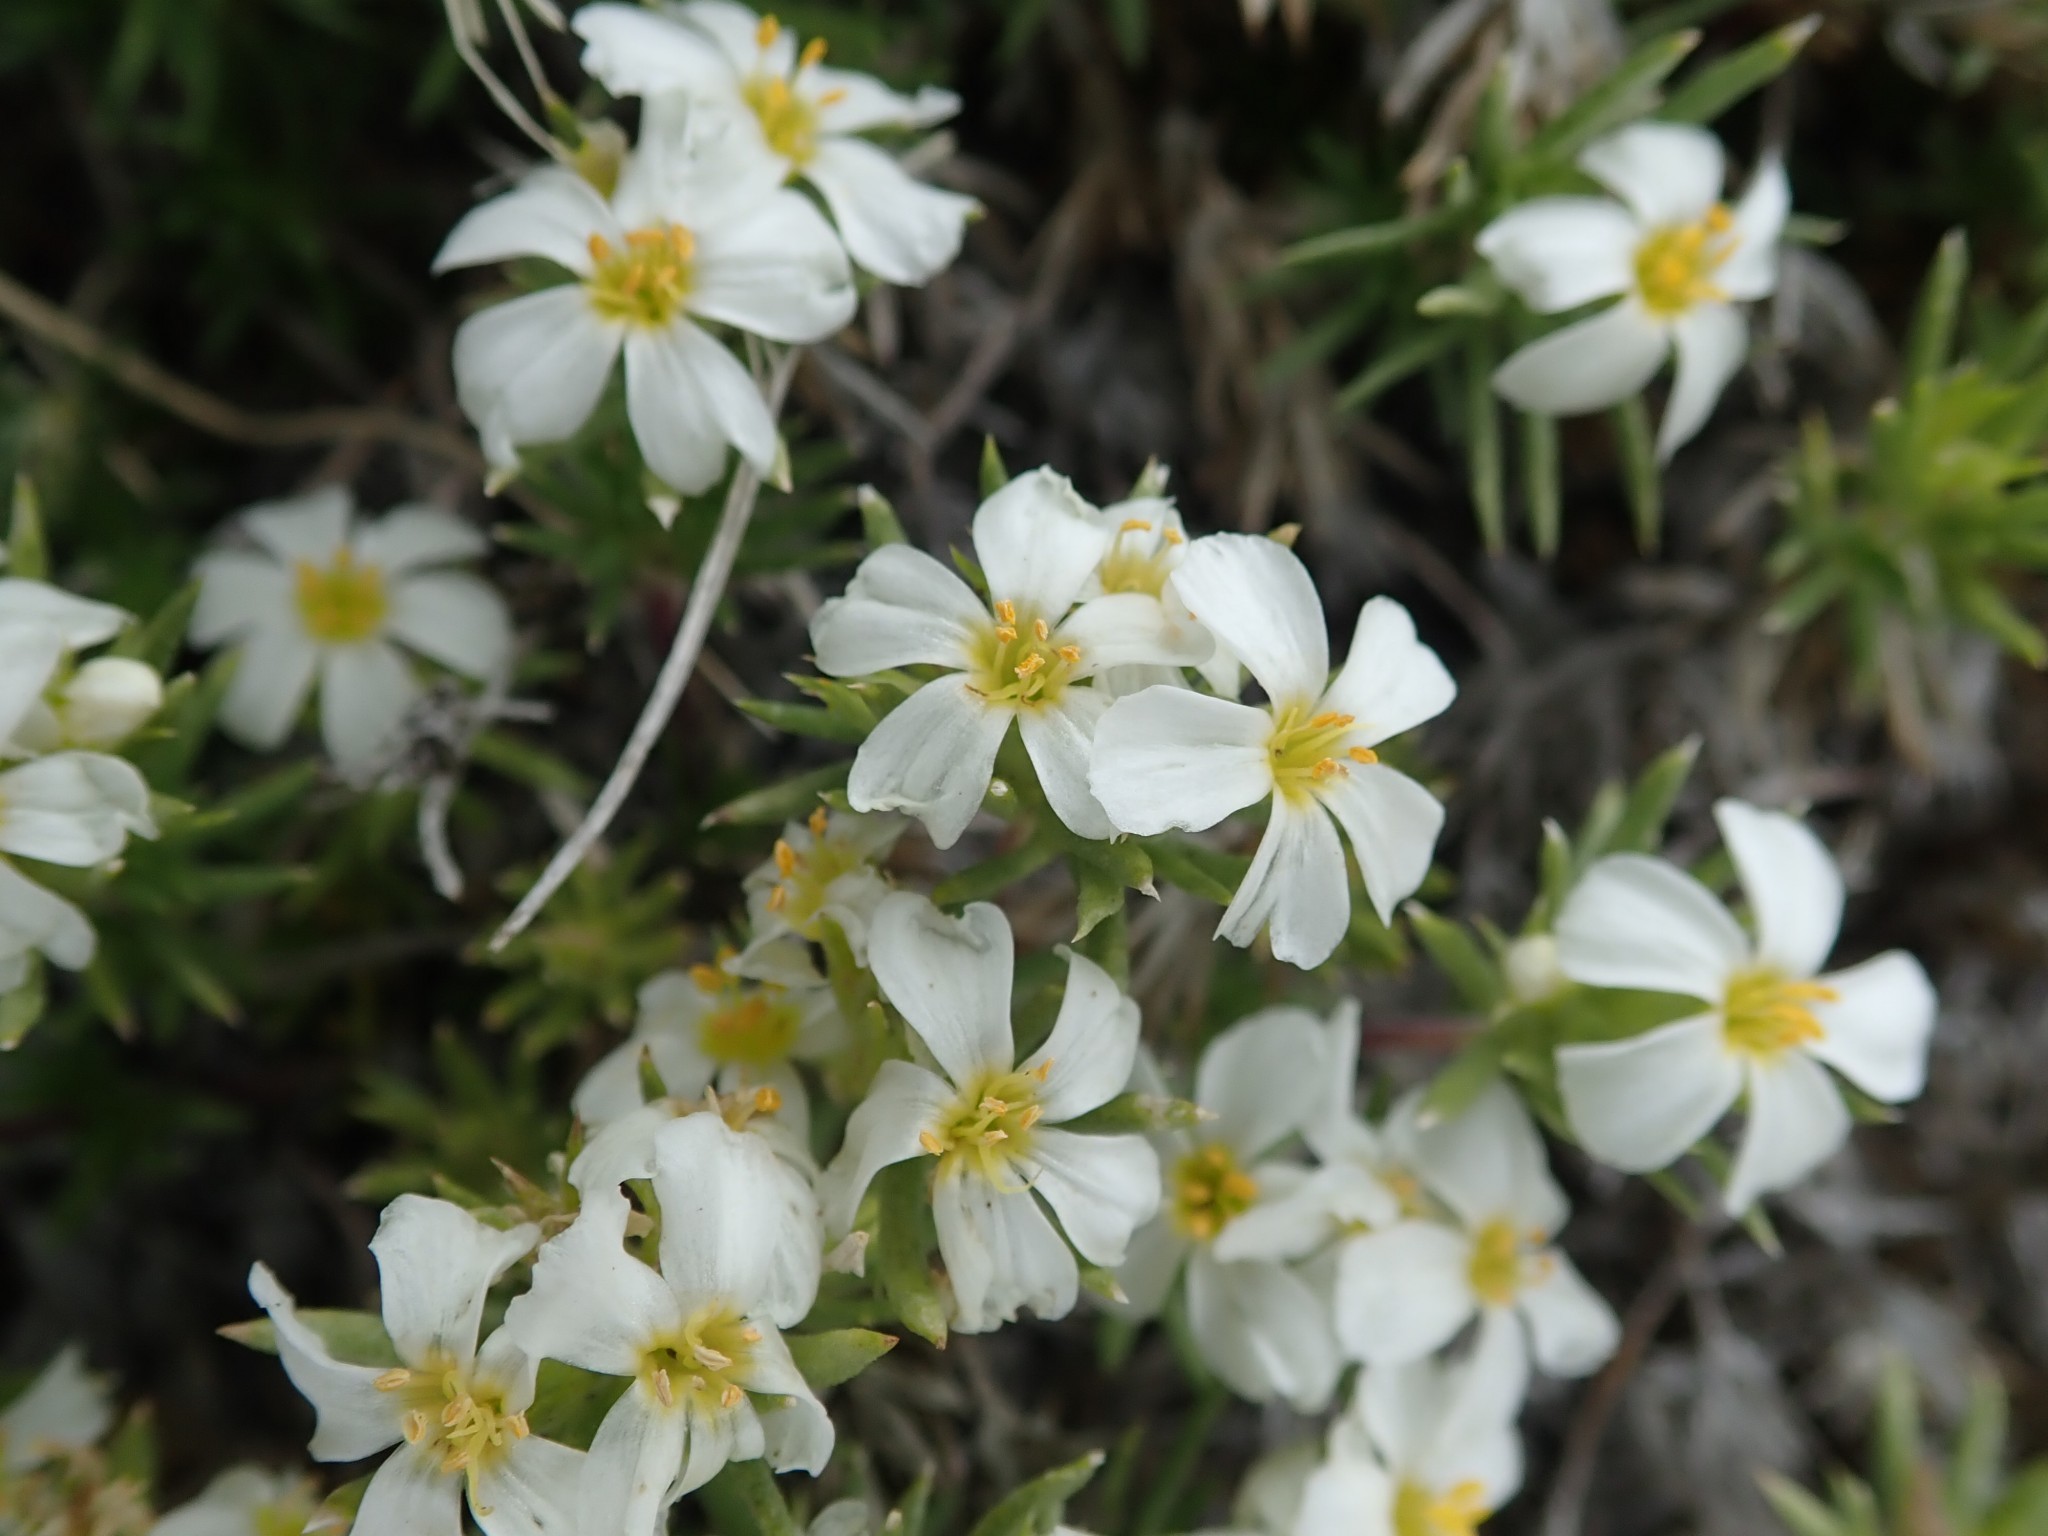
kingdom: Plantae
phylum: Tracheophyta
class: Magnoliopsida
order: Ericales
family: Polemoniaceae
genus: Leptosiphon
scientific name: Leptosiphon nuttallii
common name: Nuttall's linanthus
